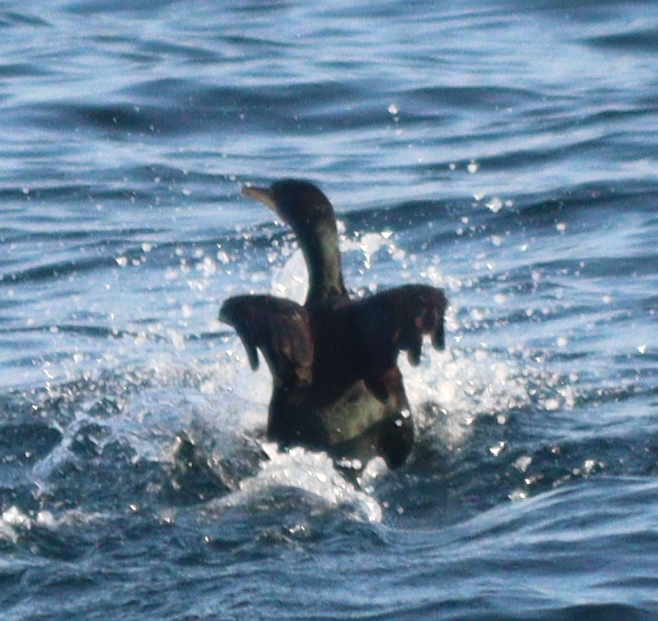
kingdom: Animalia
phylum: Chordata
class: Aves
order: Suliformes
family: Phalacrocoracidae
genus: Phalacrocorax
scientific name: Phalacrocorax aristotelis
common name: European shag
